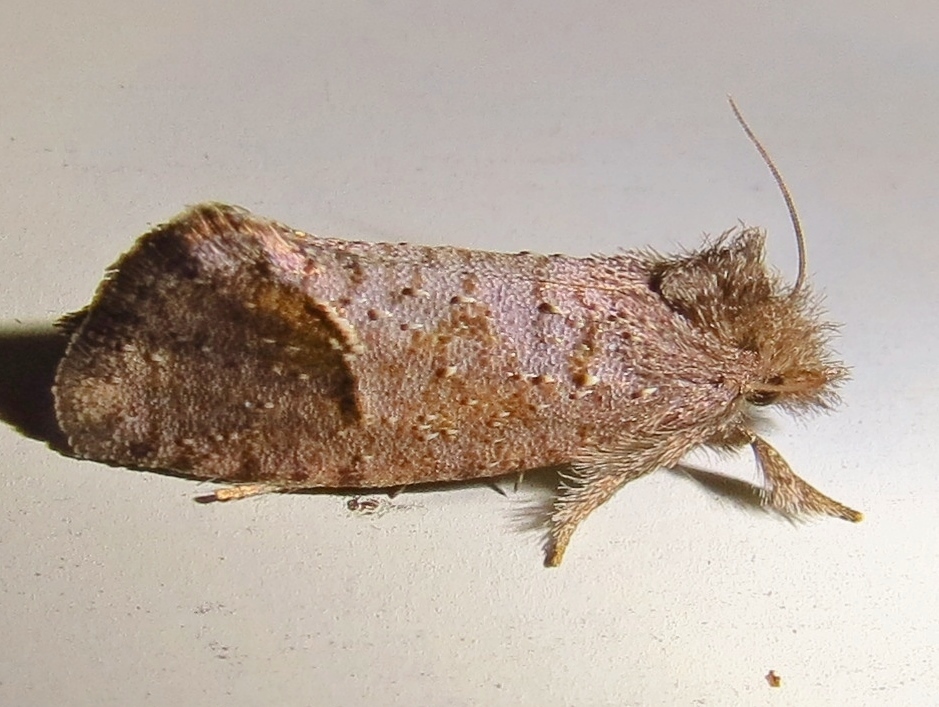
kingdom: Animalia
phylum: Arthropoda
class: Insecta
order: Lepidoptera
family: Tineidae
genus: Acrolophus
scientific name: Acrolophus texanella
